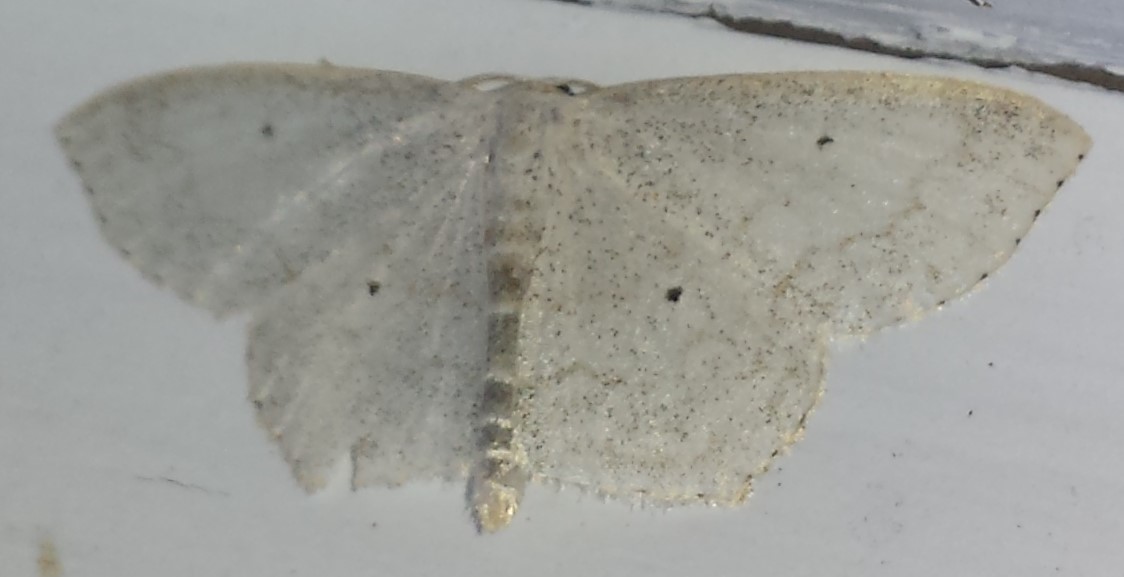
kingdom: Animalia
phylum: Arthropoda
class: Insecta
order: Lepidoptera
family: Geometridae
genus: Scopula
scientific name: Scopula limboundata
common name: Large lace border
